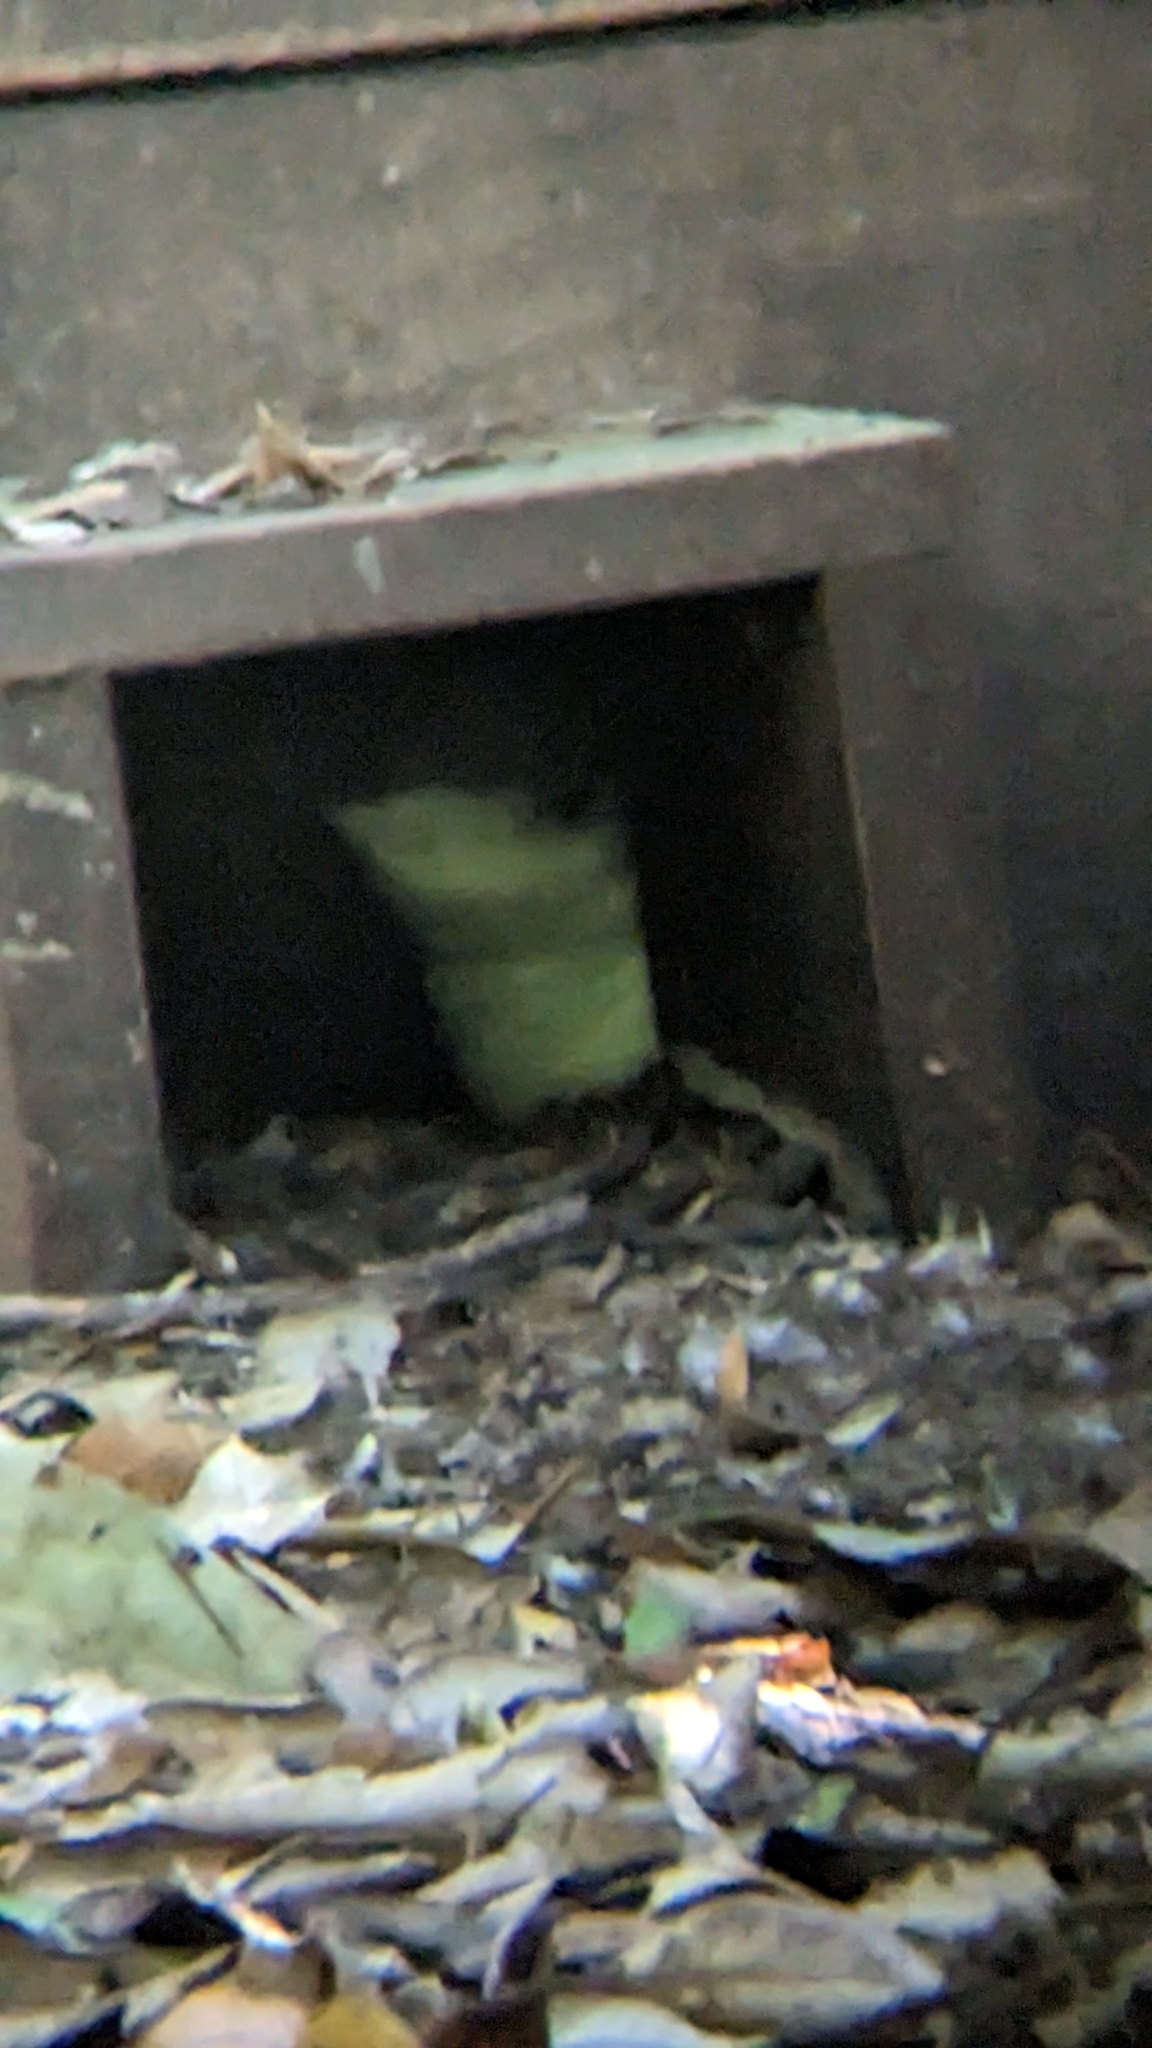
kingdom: Animalia
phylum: Chordata
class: Aves
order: Sphenisciformes
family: Spheniscidae
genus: Eudyptula
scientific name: Eudyptula minor
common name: Little penguin
